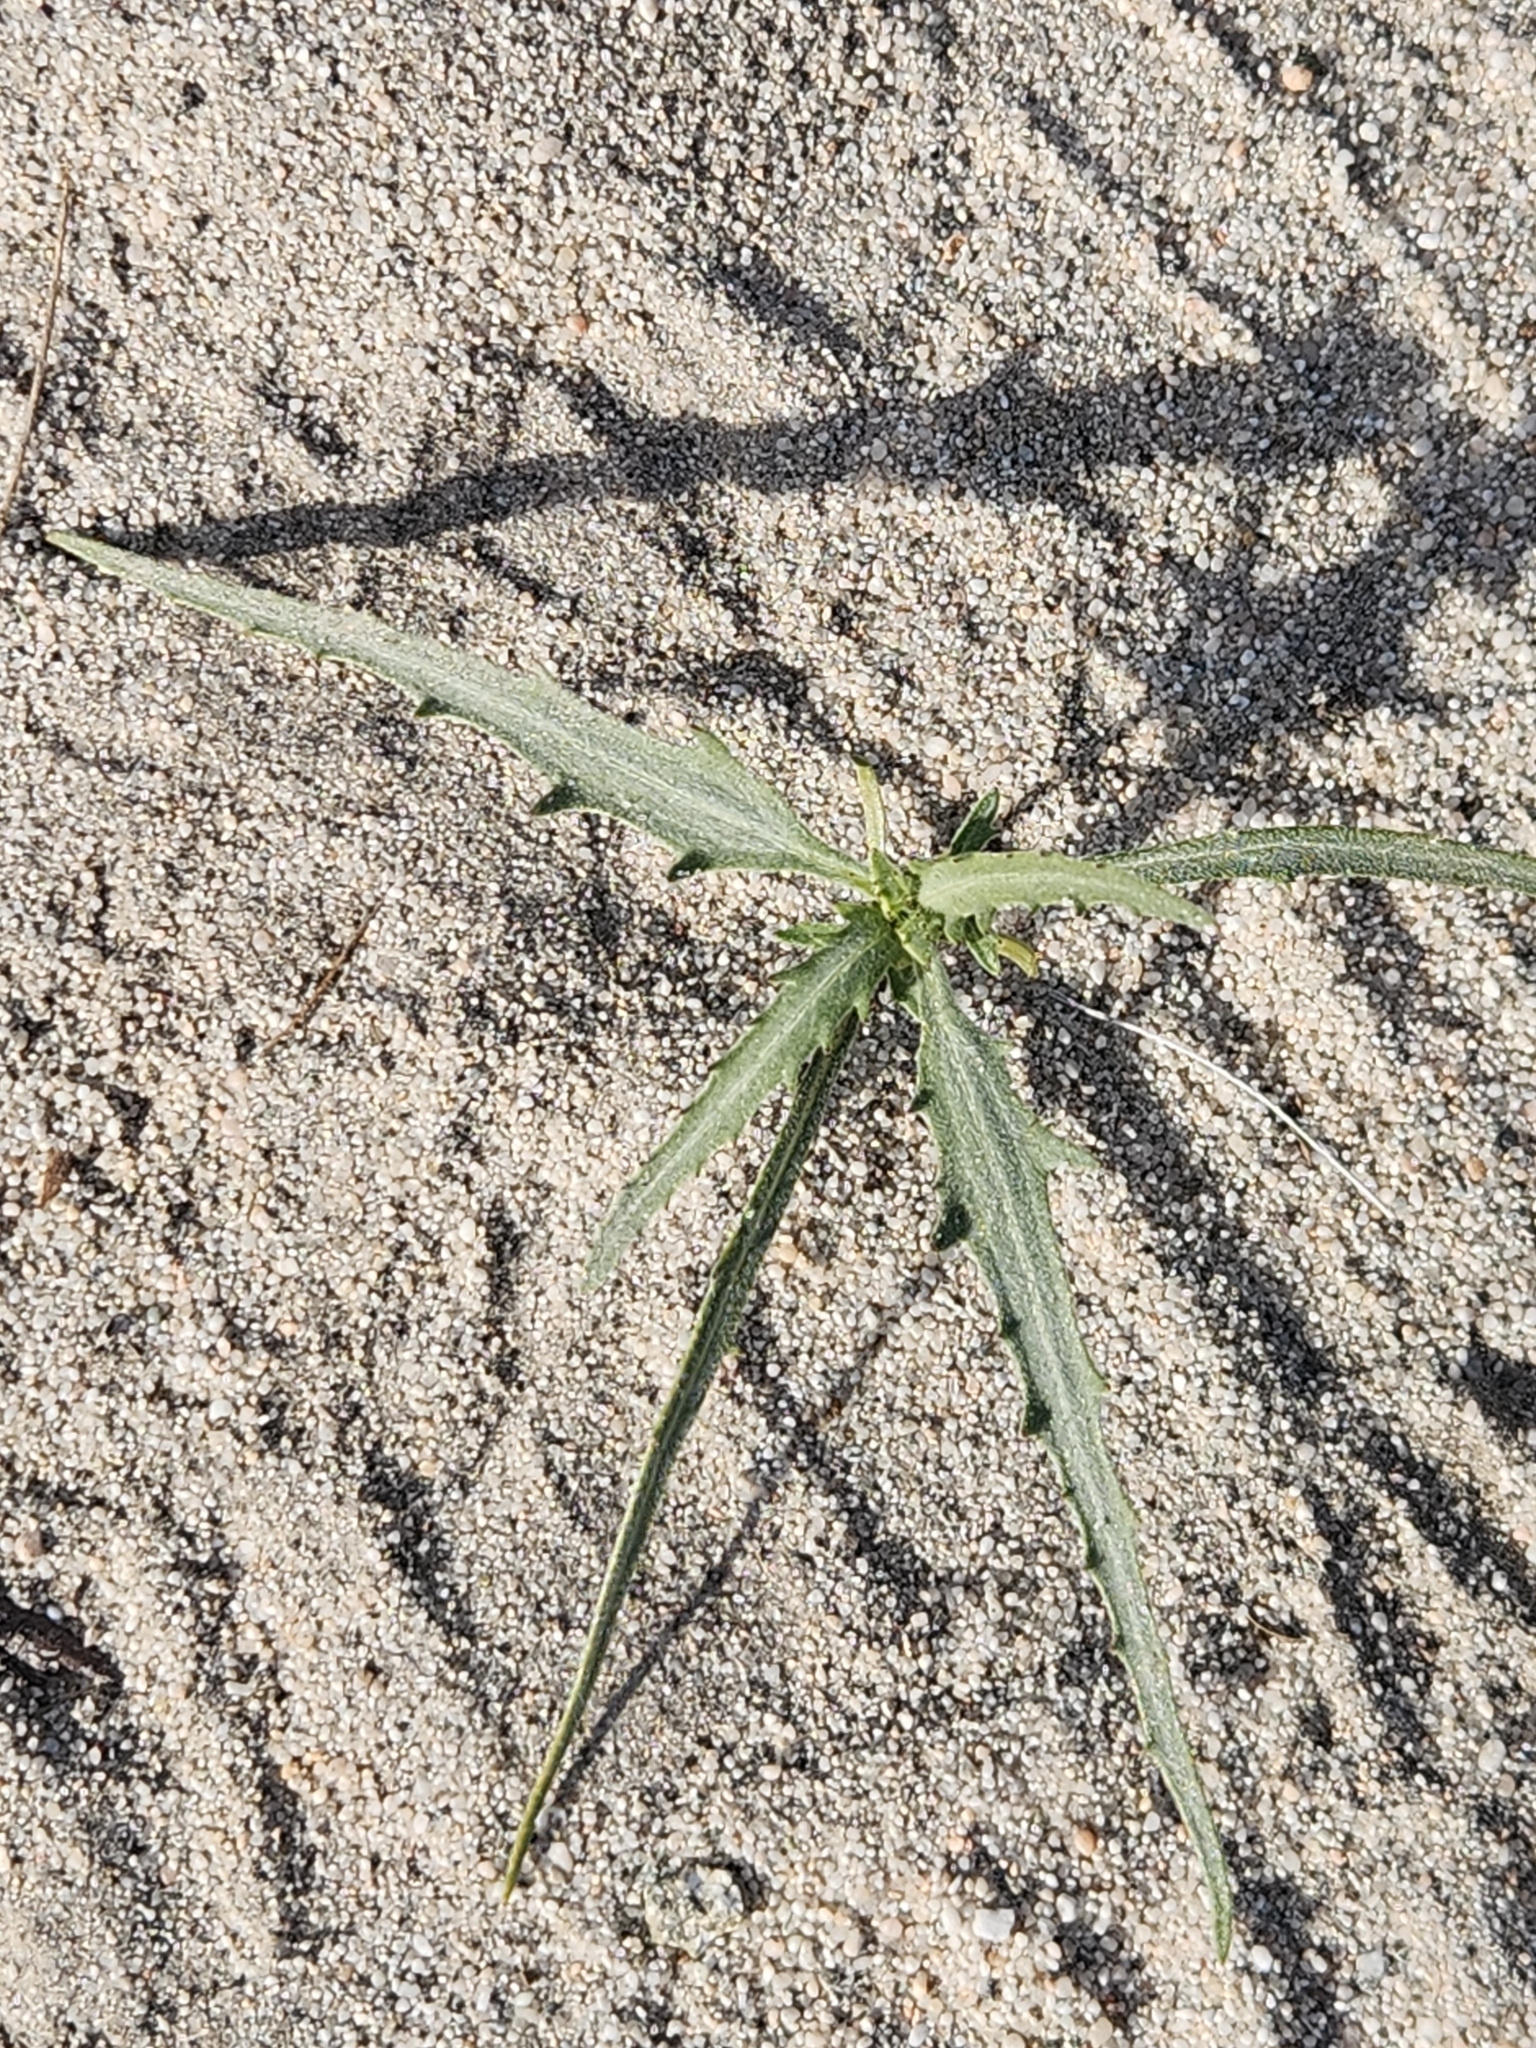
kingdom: Plantae
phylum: Tracheophyta
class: Magnoliopsida
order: Asterales
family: Asteraceae
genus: Dicoria
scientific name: Dicoria canescens
